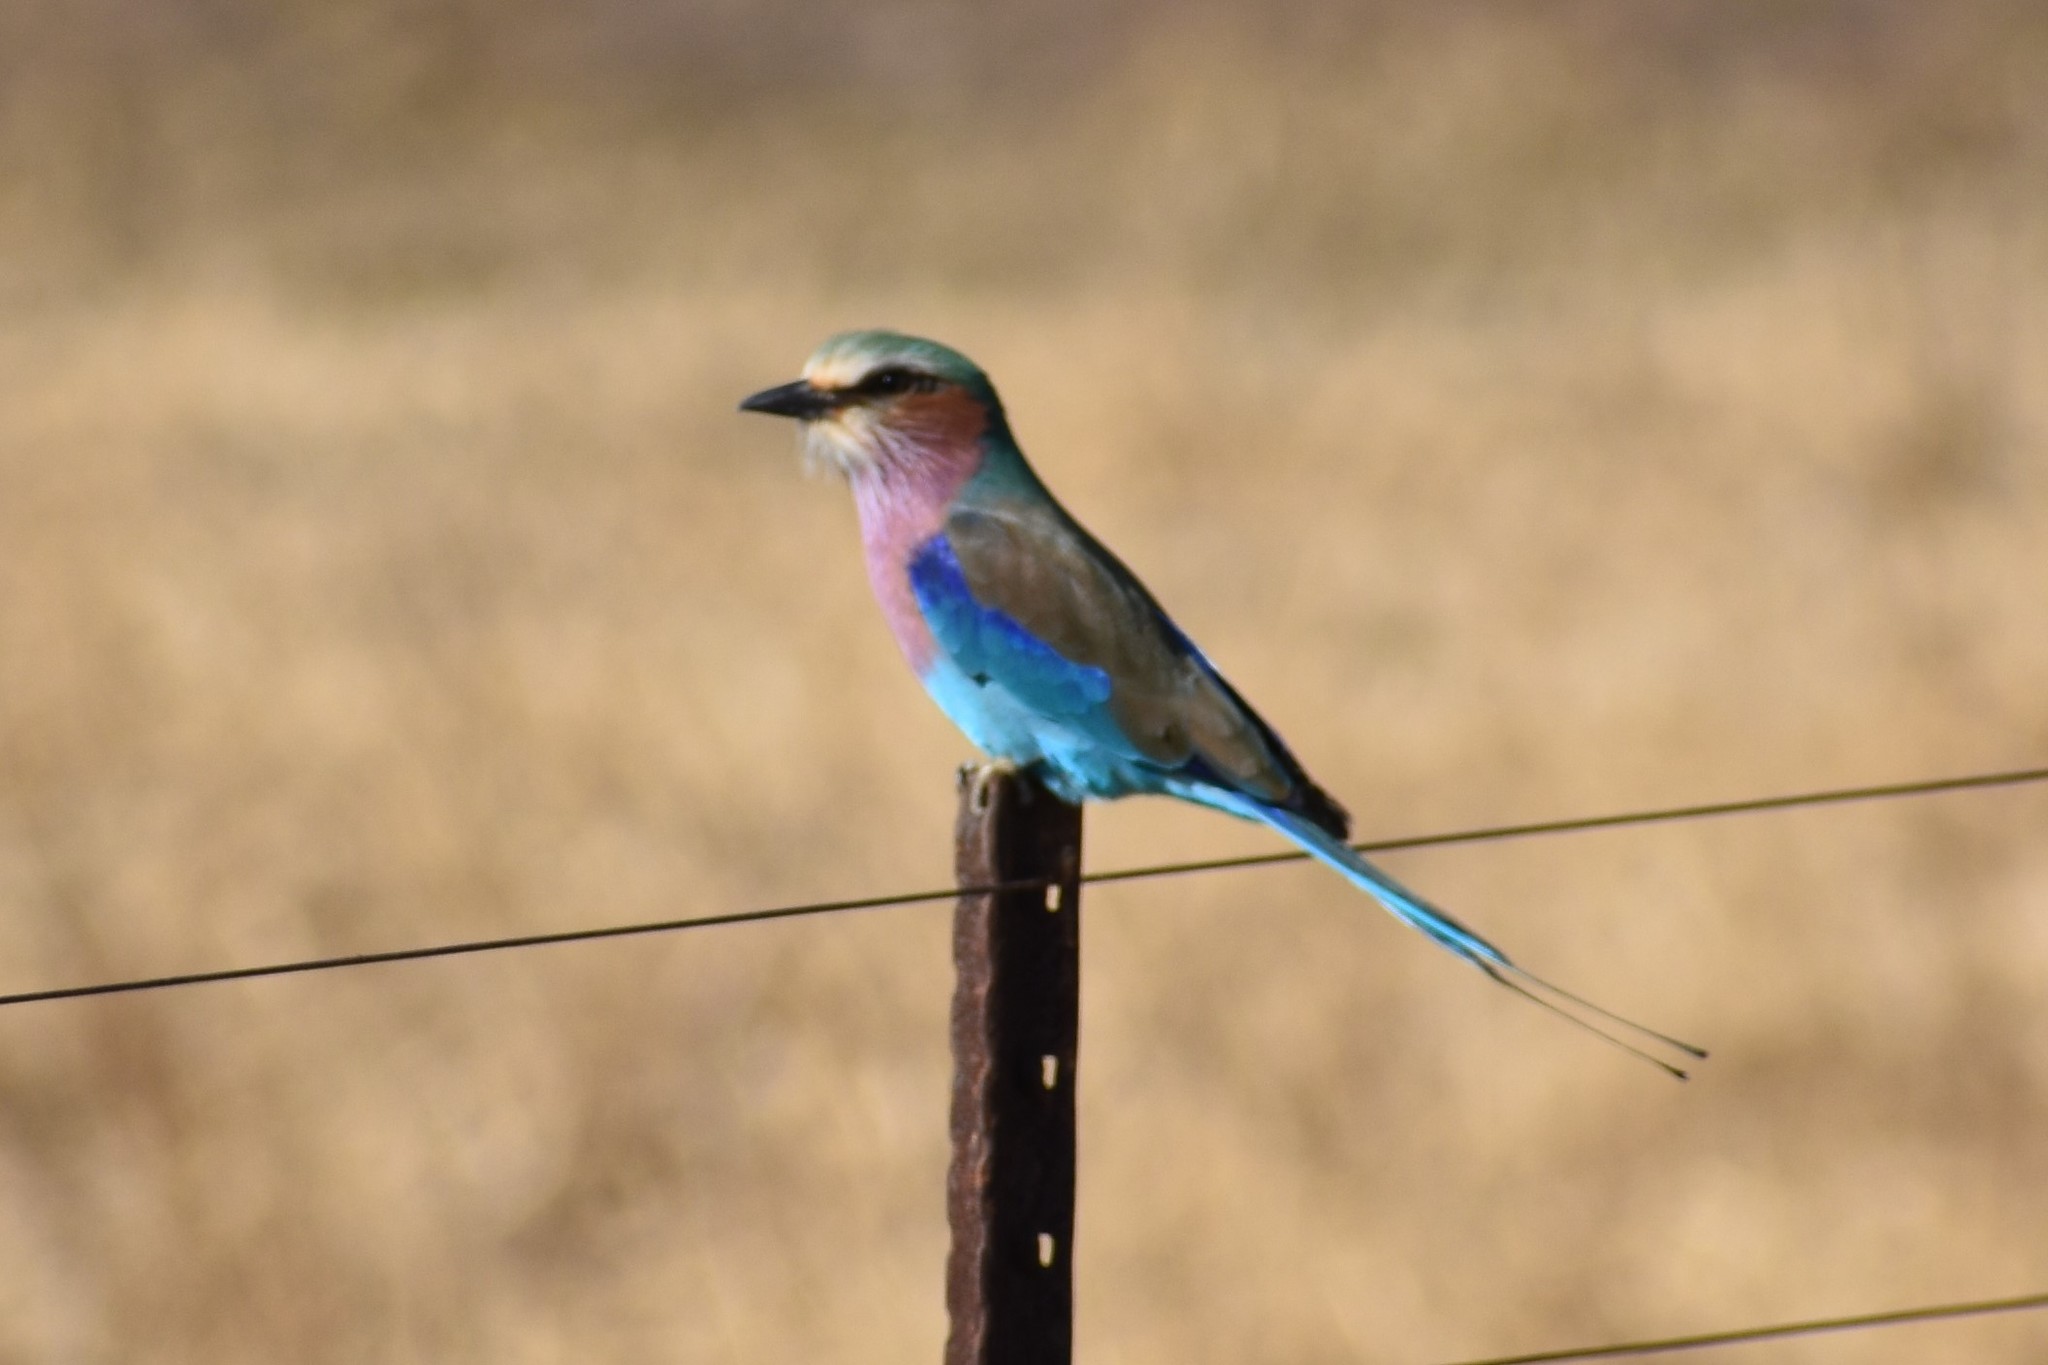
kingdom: Animalia
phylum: Chordata
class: Aves
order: Coraciiformes
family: Coraciidae
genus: Coracias
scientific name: Coracias caudatus
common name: Lilac-breasted roller
